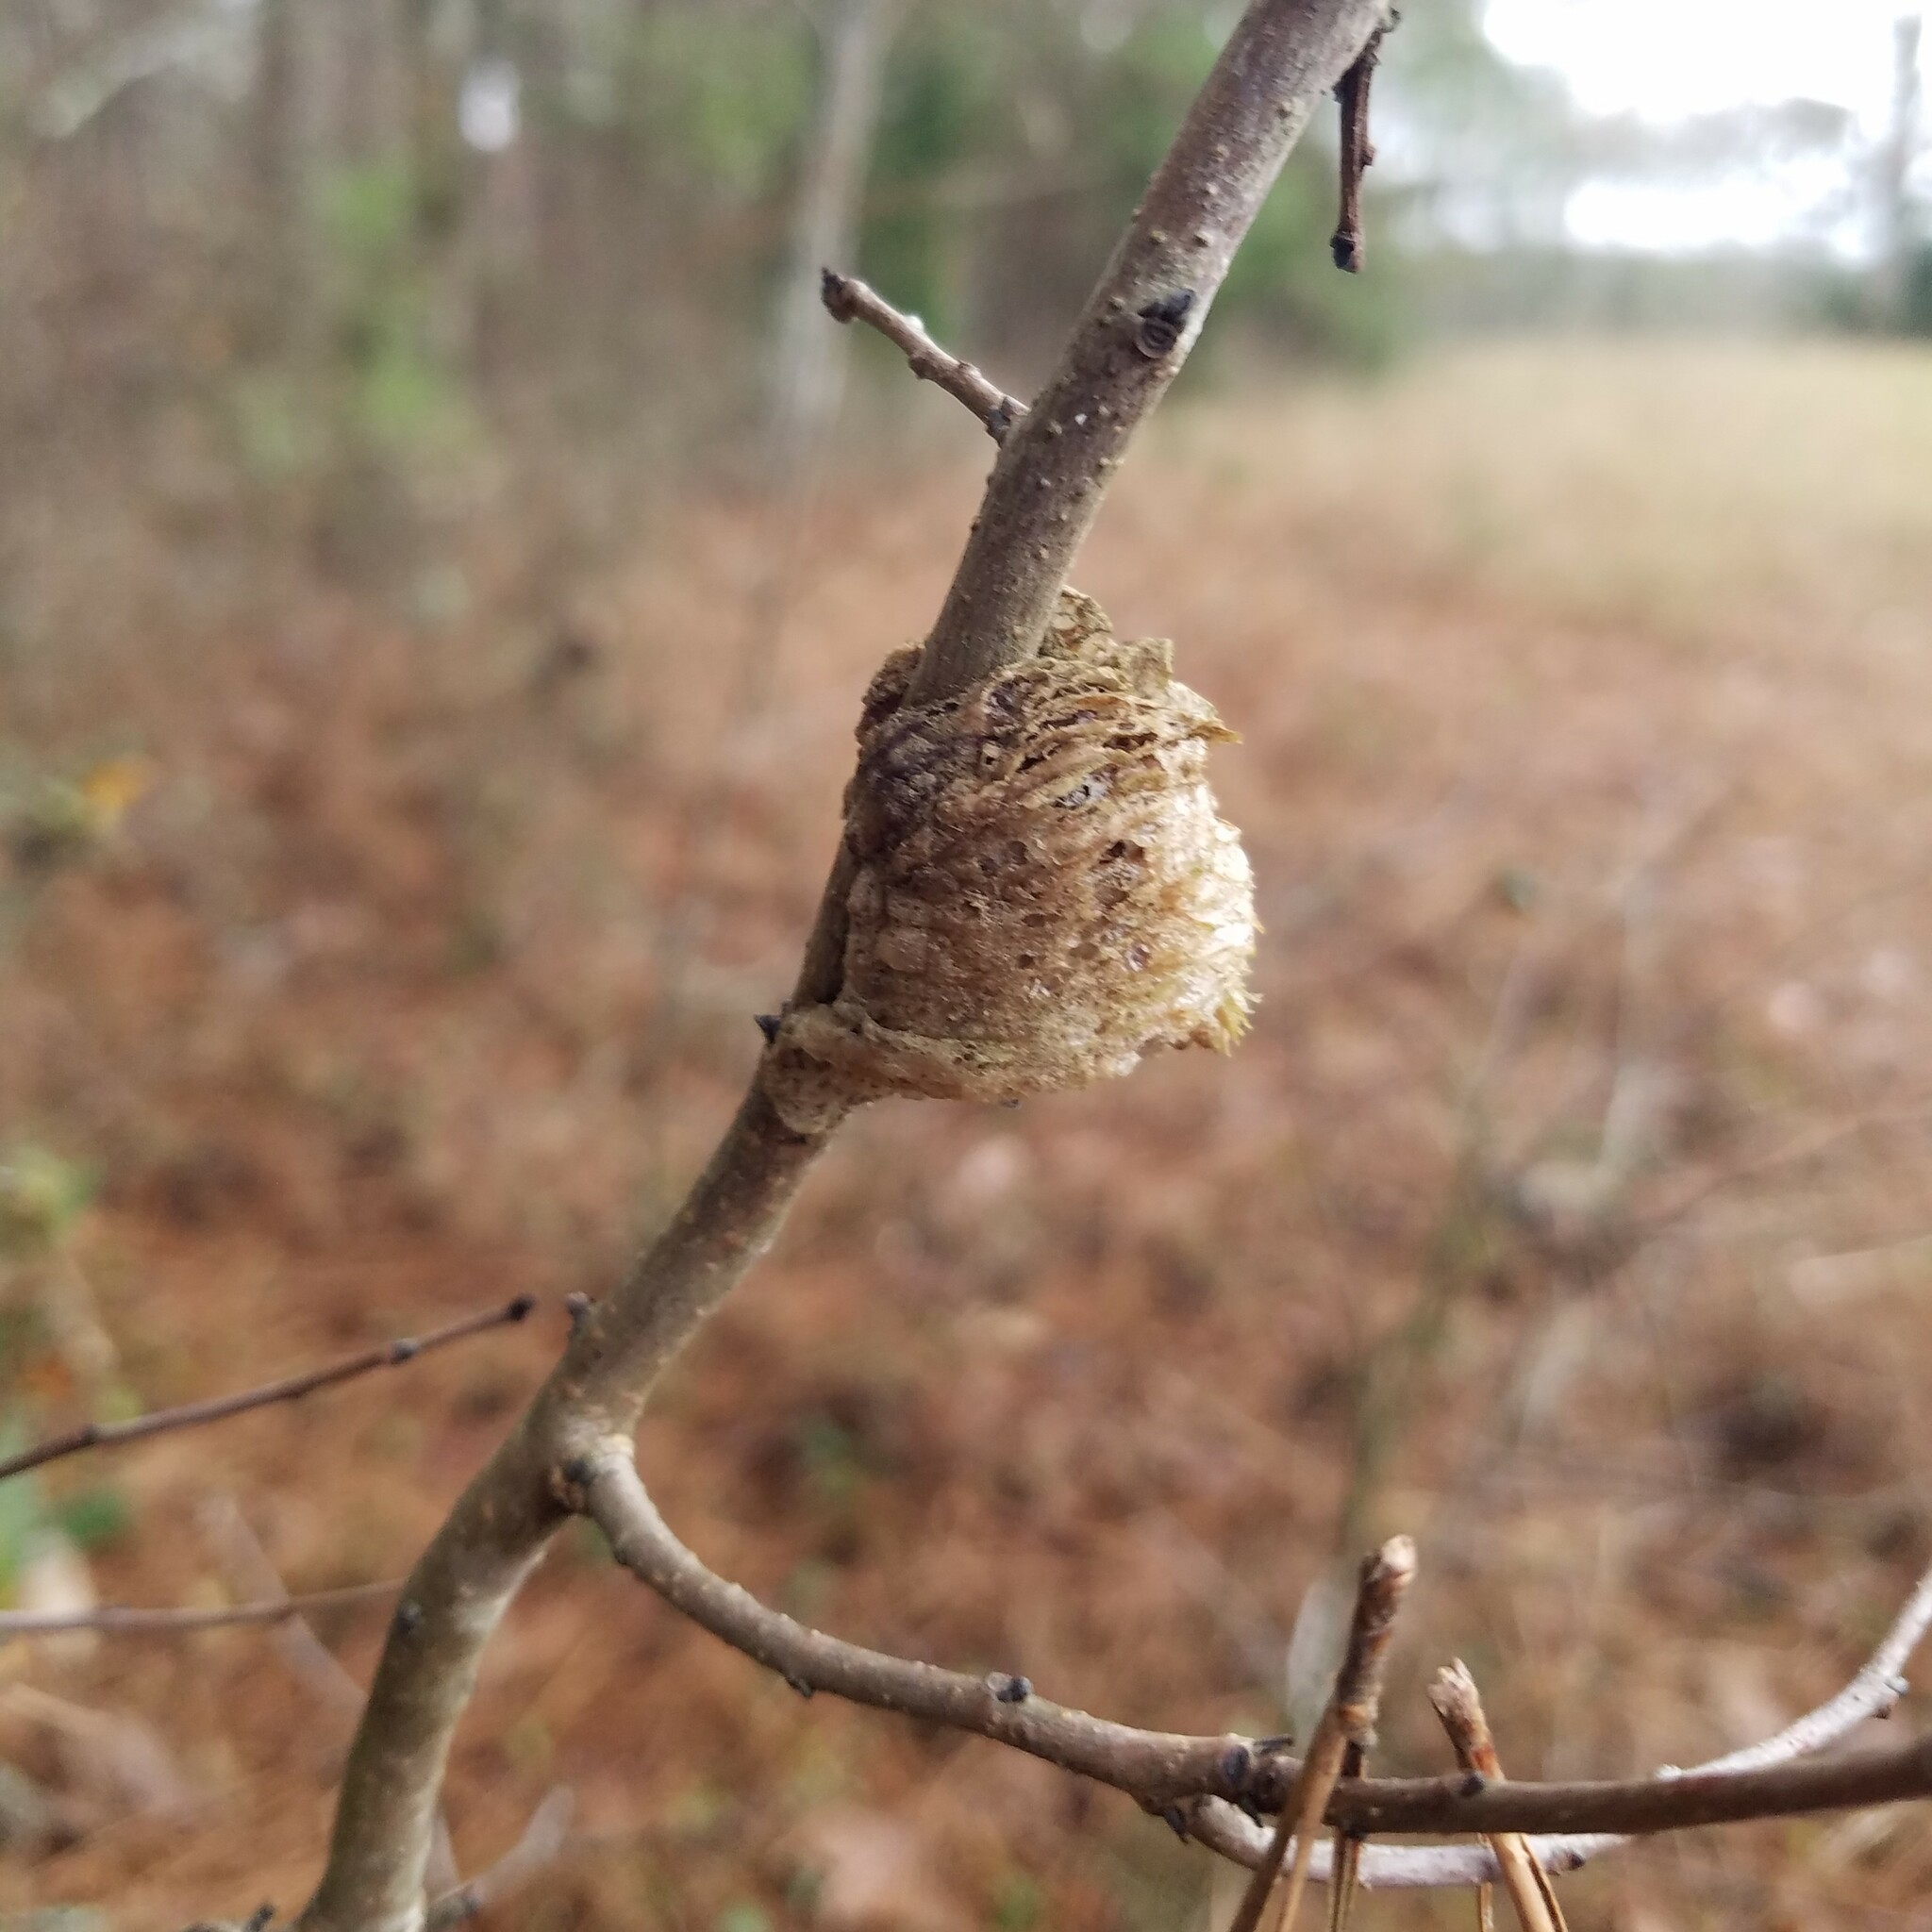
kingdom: Animalia
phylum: Arthropoda
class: Insecta
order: Mantodea
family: Mantidae
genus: Tenodera
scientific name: Tenodera sinensis
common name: Chinese mantis
